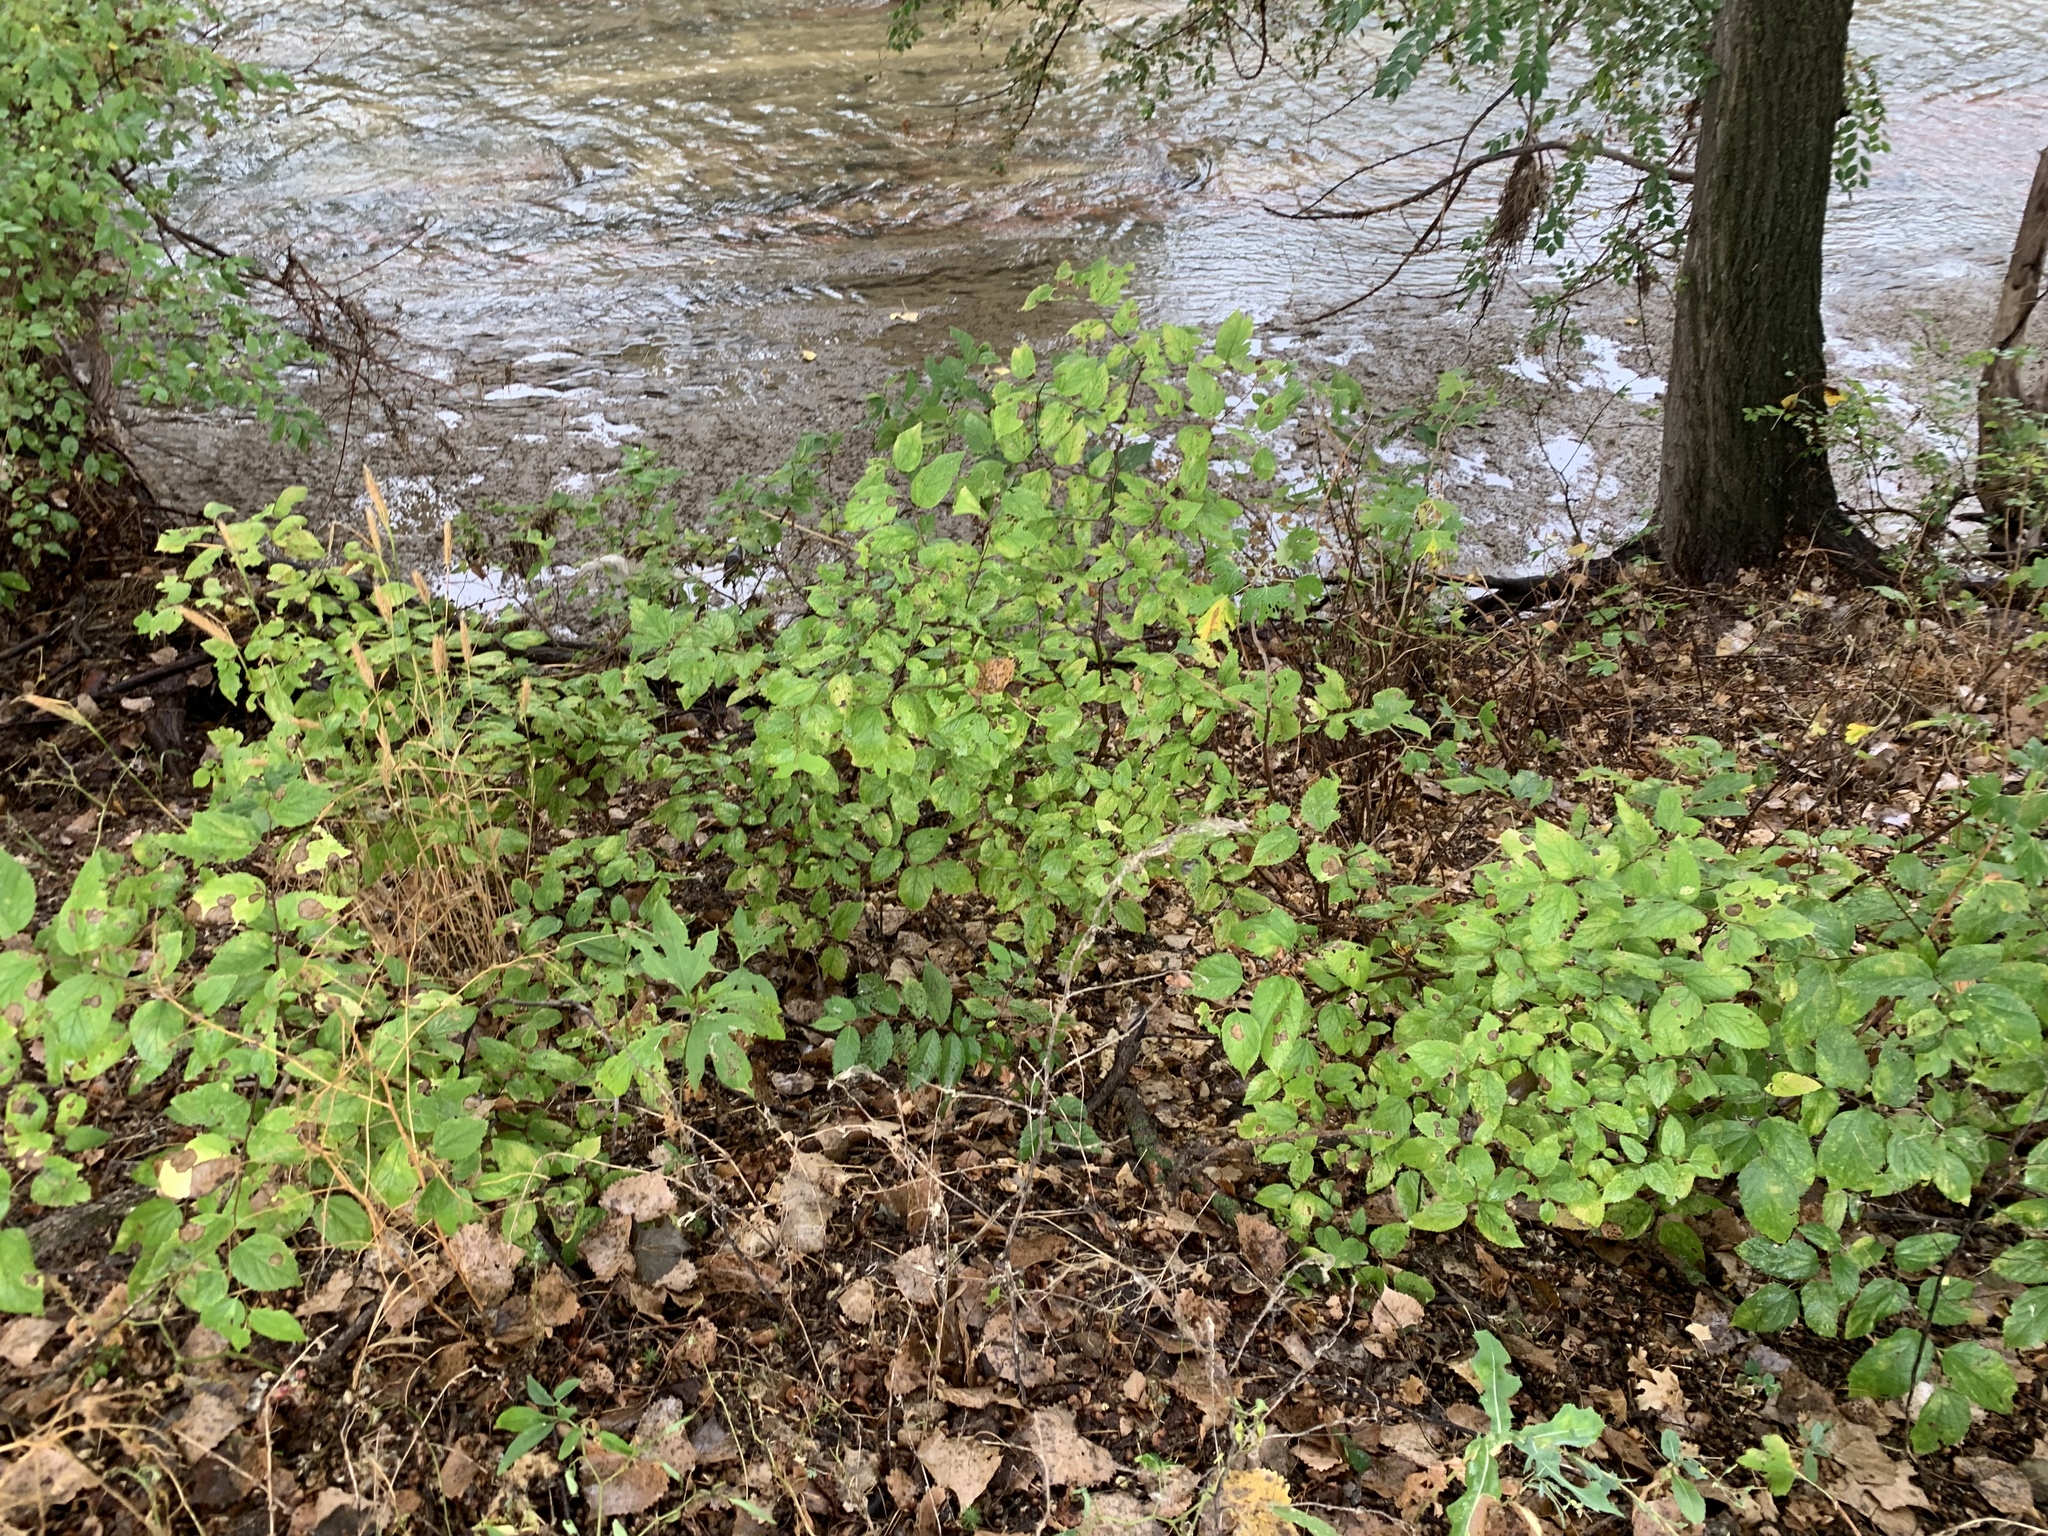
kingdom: Plantae
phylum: Tracheophyta
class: Magnoliopsida
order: Rosales
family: Cannabaceae
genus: Celtis
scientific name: Celtis occidentalis
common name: Common hackberry
